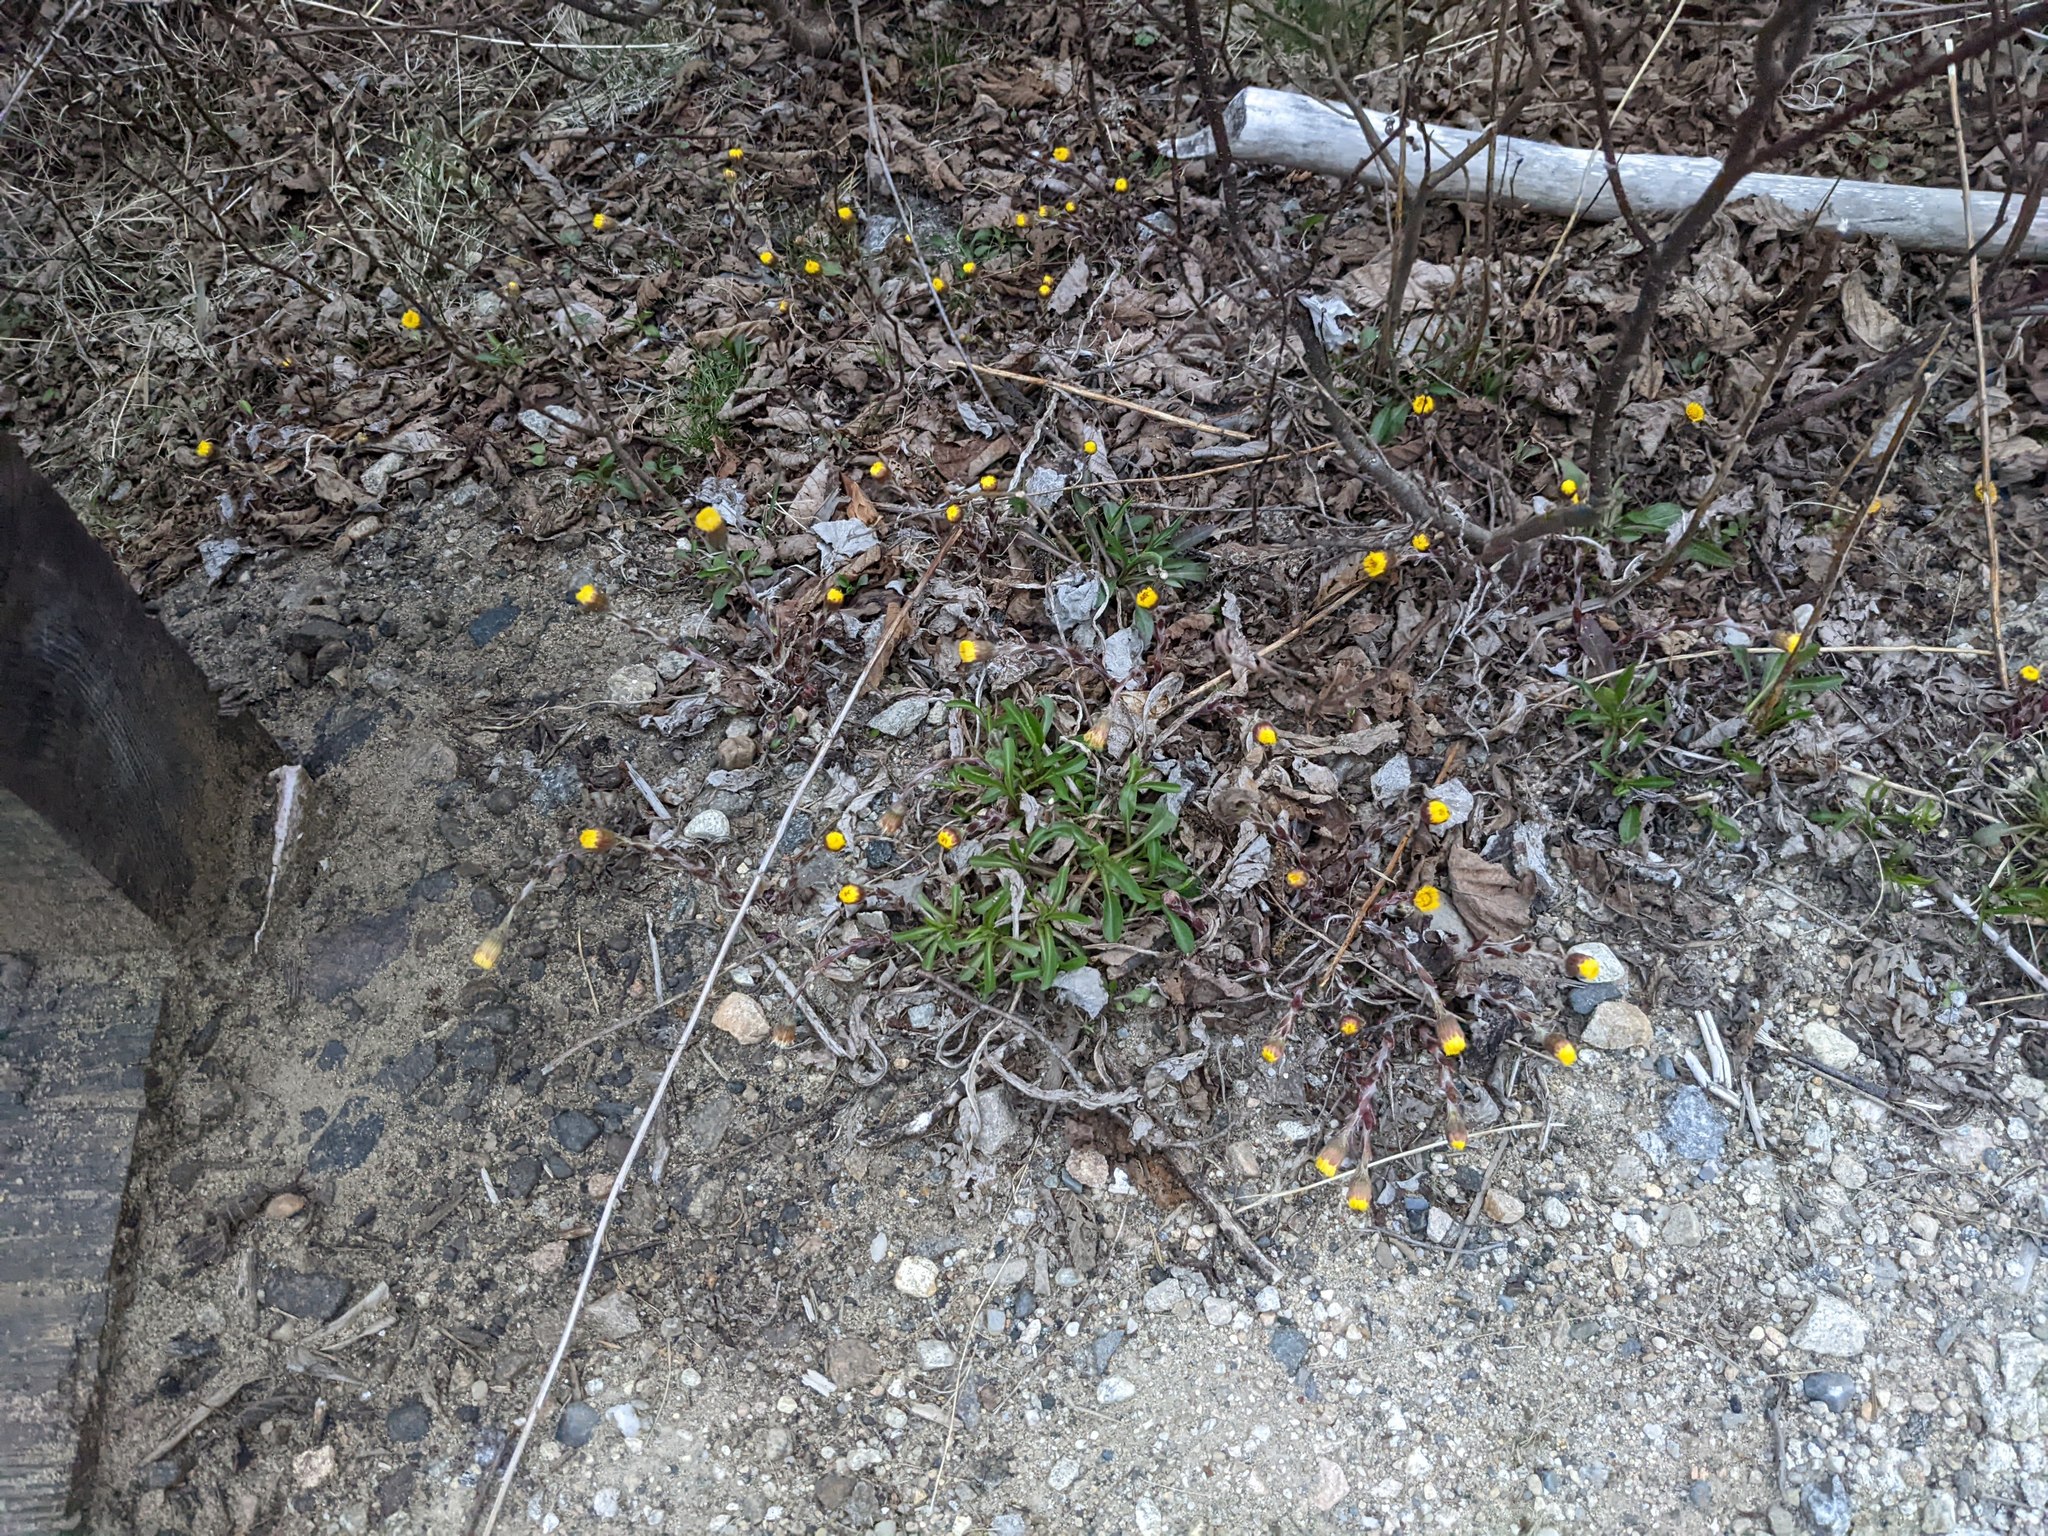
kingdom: Plantae
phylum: Tracheophyta
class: Magnoliopsida
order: Asterales
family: Asteraceae
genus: Tussilago
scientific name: Tussilago farfara
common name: Coltsfoot
